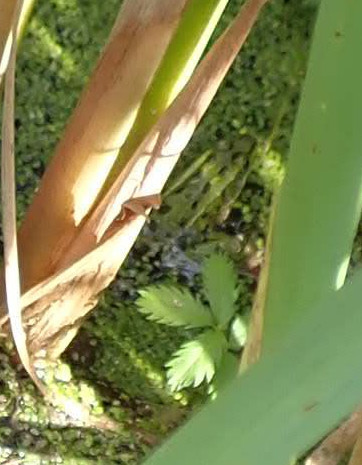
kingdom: Animalia
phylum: Chordata
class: Amphibia
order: Anura
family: Ranidae
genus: Lithobates
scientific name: Lithobates pipiens
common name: Northern leopard frog
